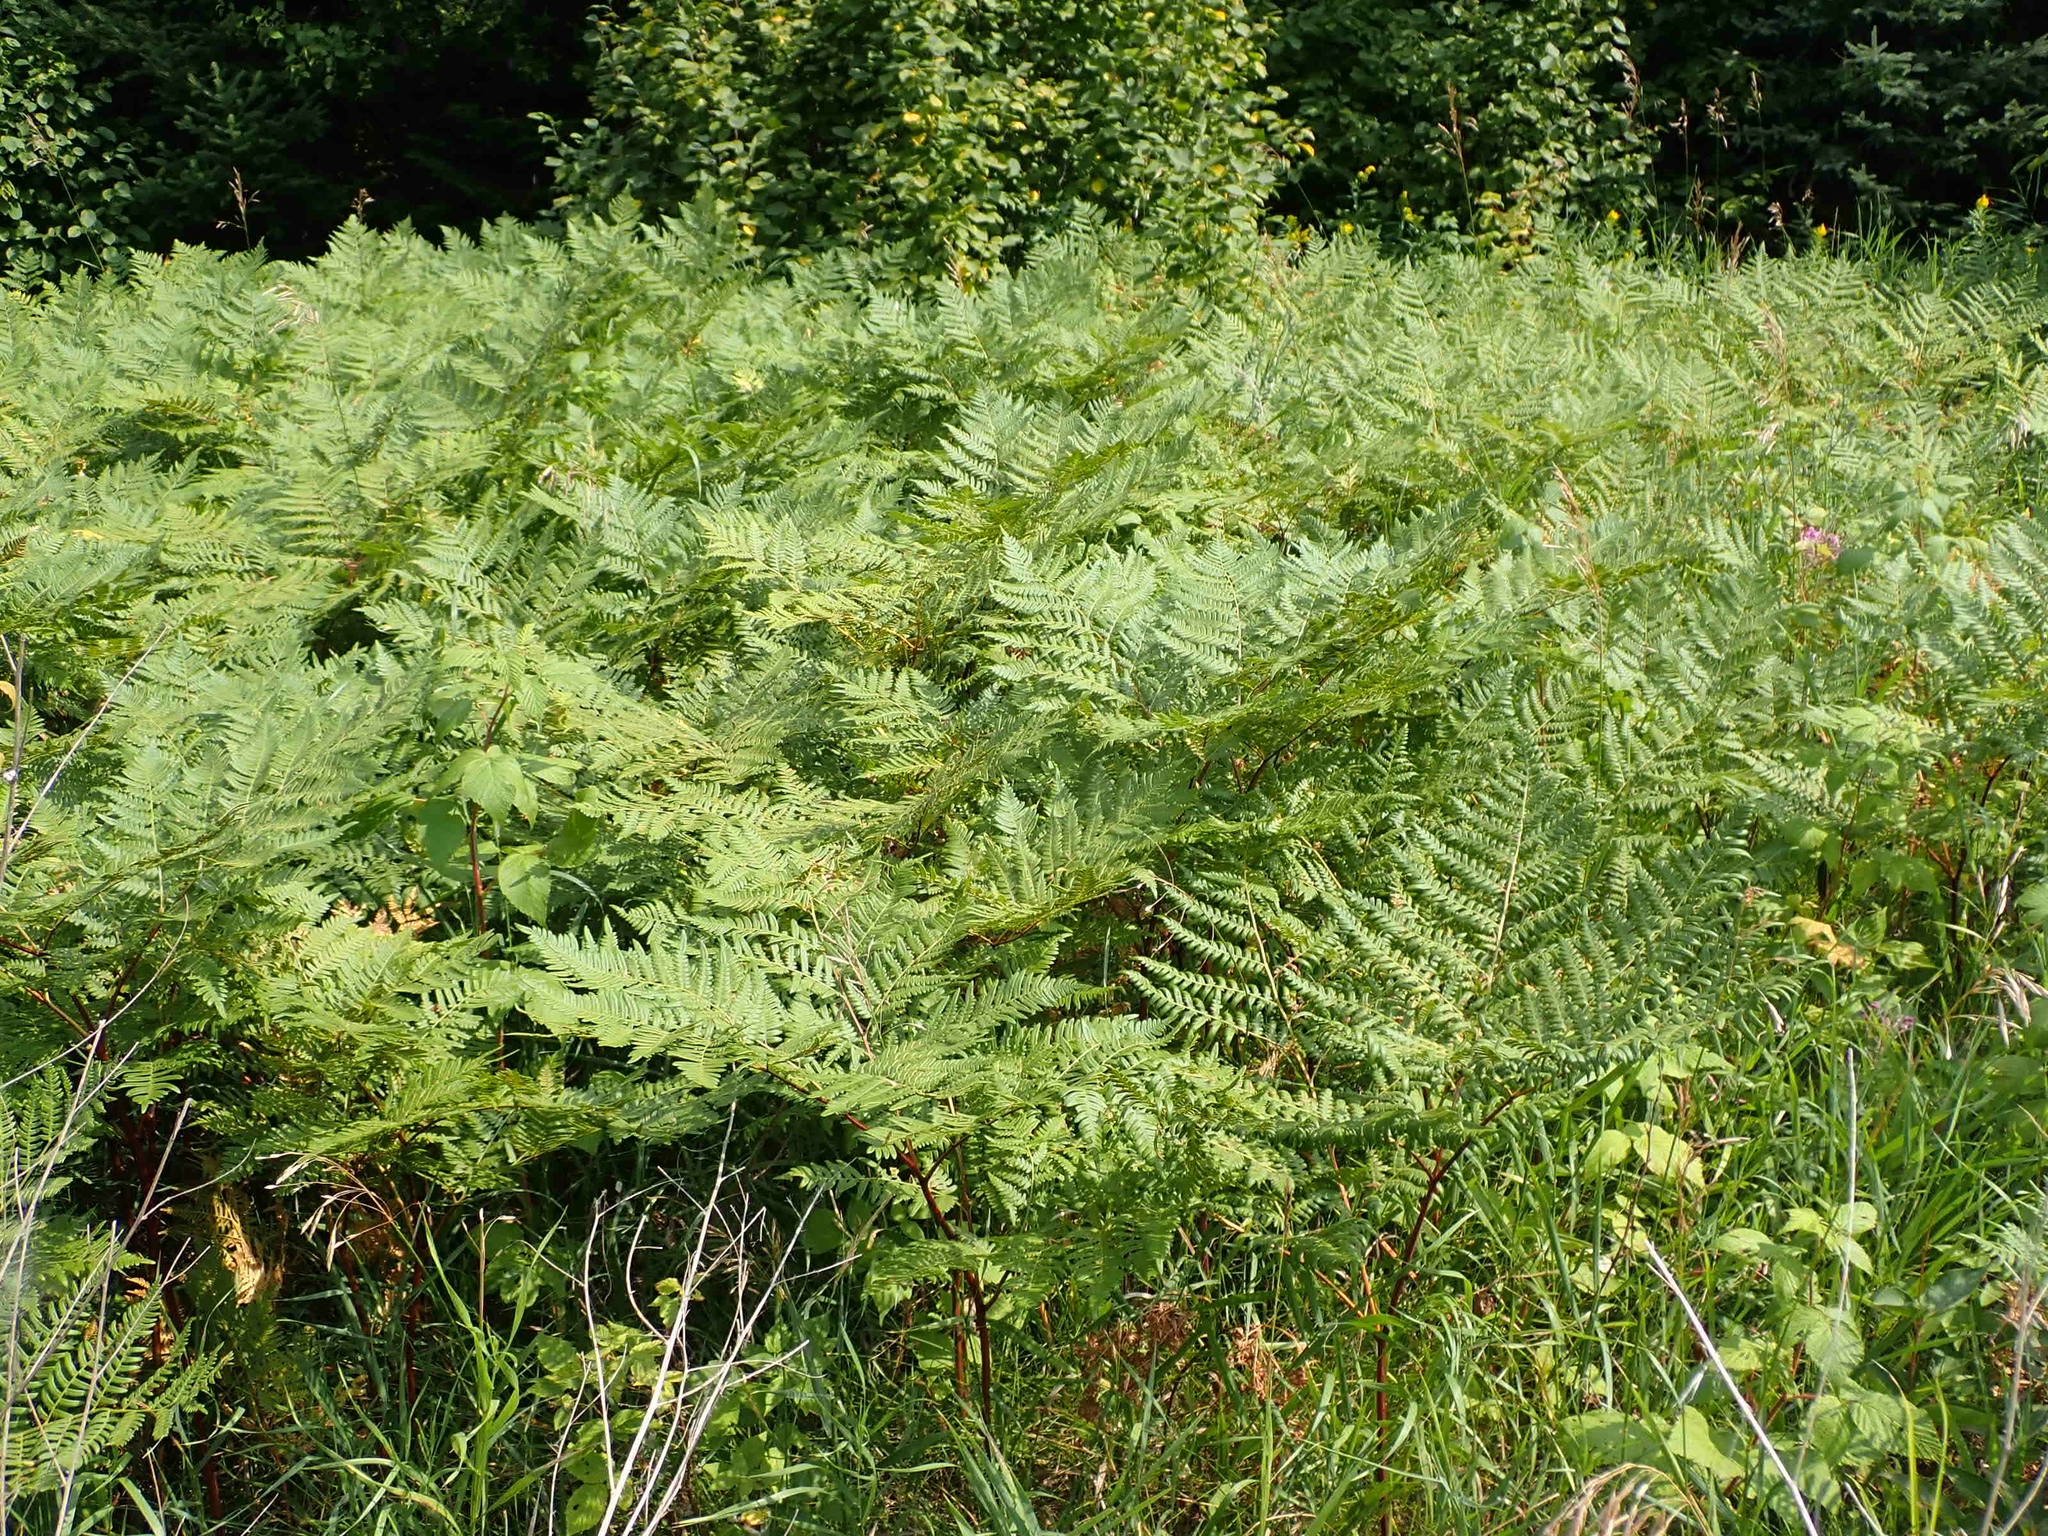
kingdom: Plantae
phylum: Tracheophyta
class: Polypodiopsida
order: Polypodiales
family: Dennstaedtiaceae
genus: Pteridium
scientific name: Pteridium aquilinum
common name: Bracken
